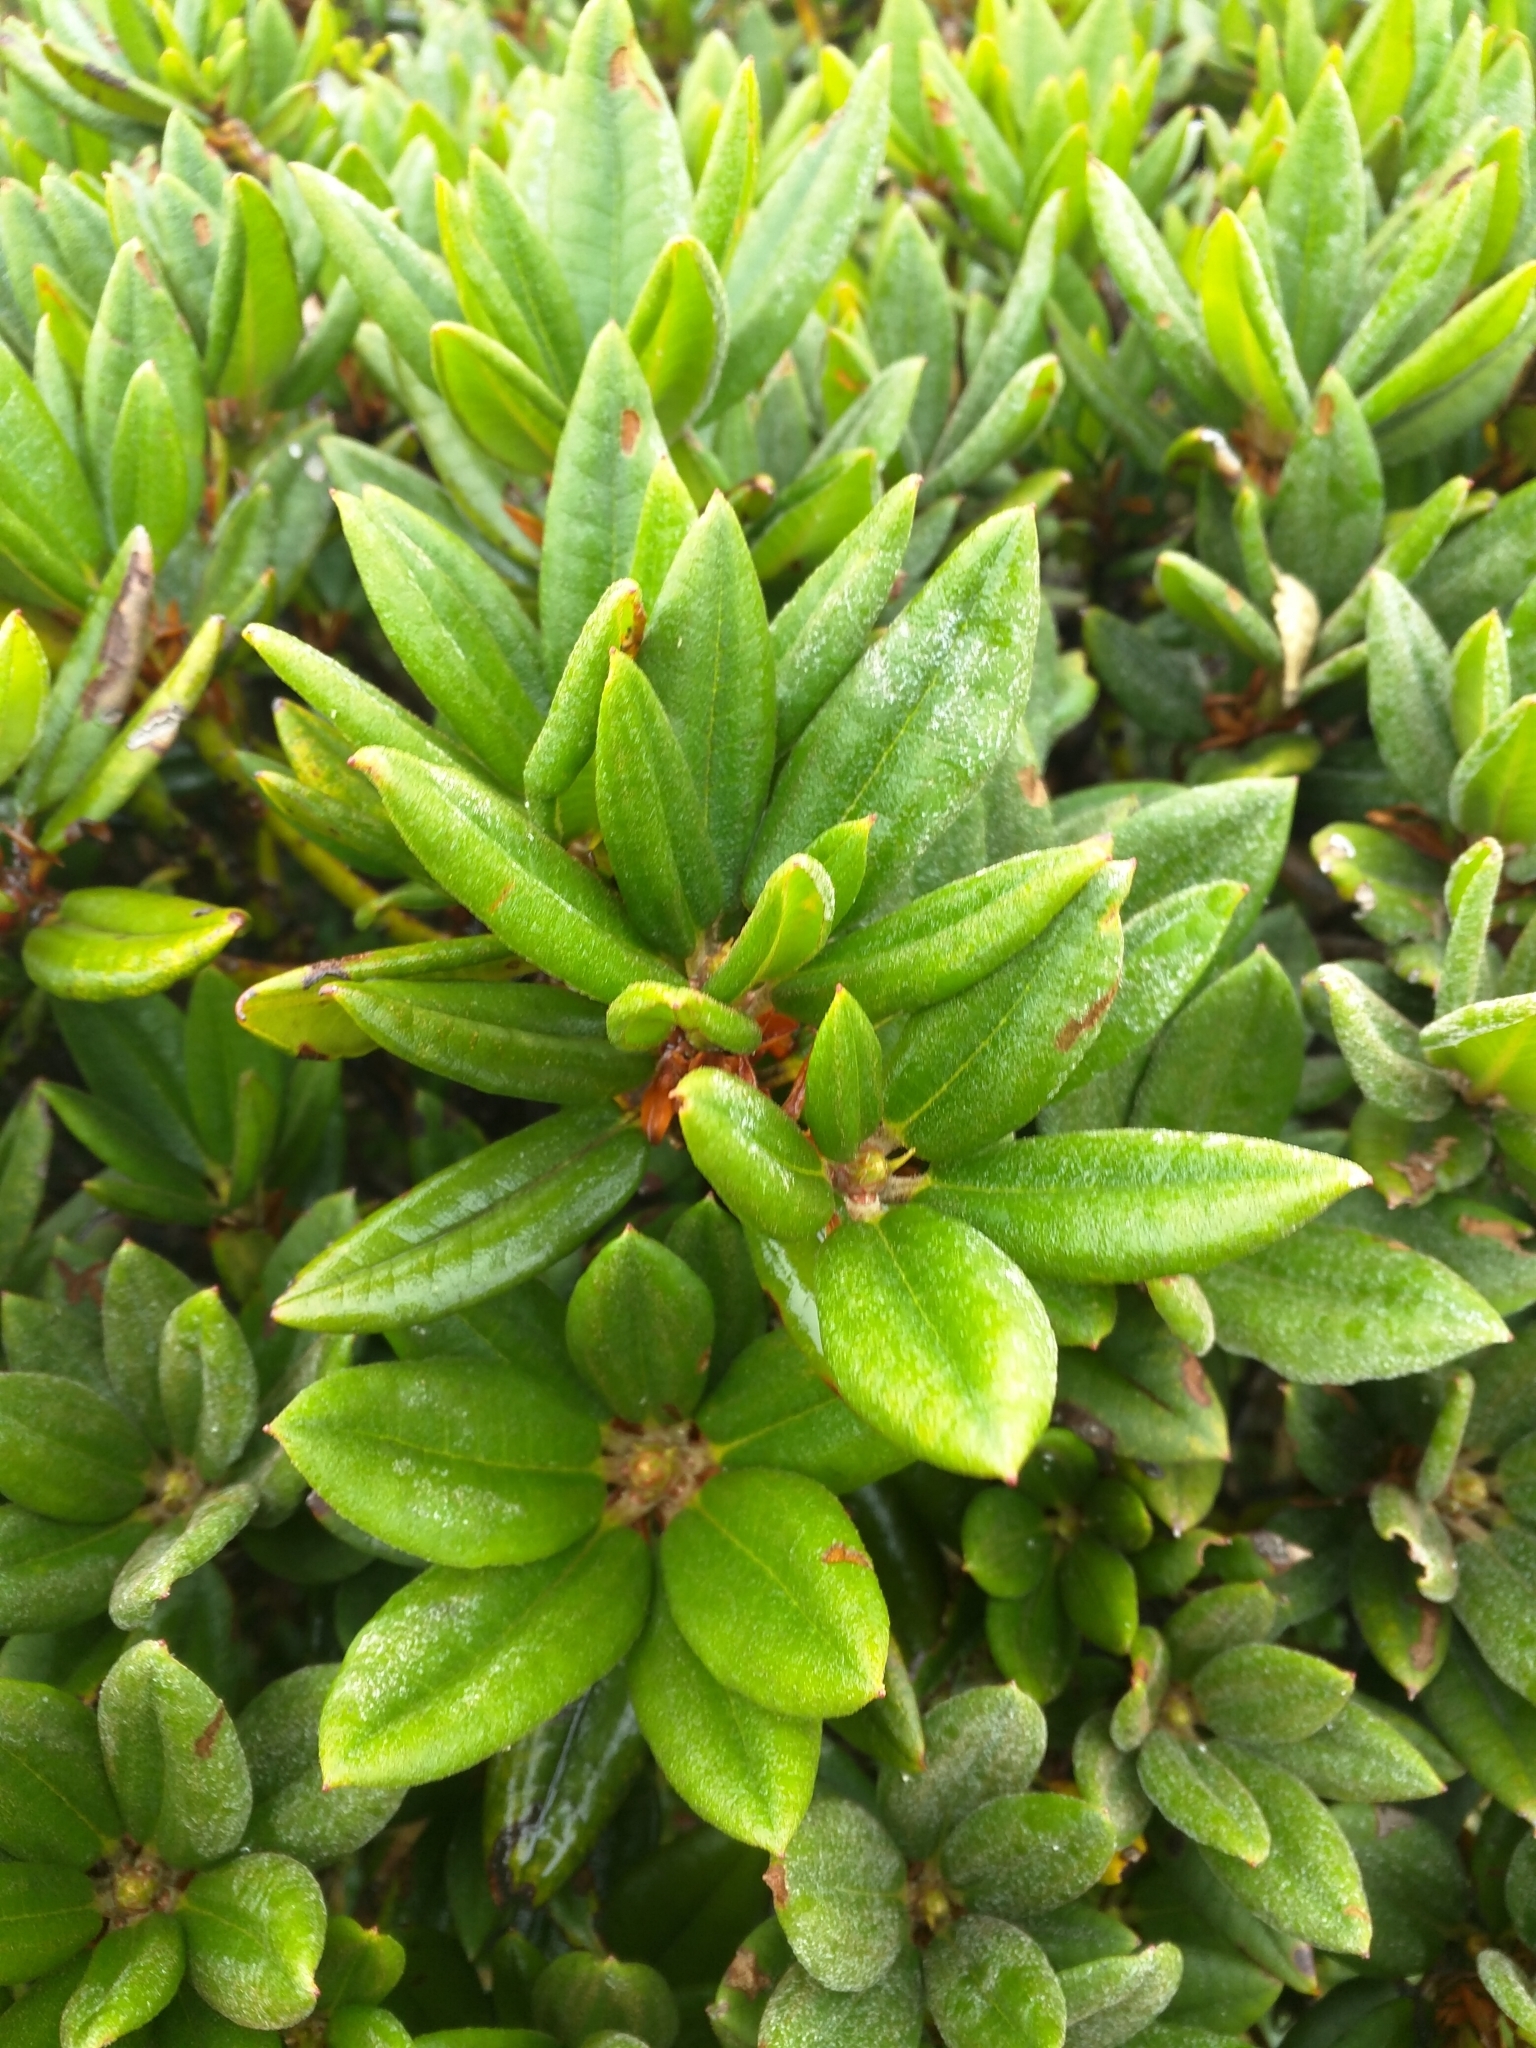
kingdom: Plantae
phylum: Tracheophyta
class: Magnoliopsida
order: Ericales
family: Ericaceae
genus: Rhododendron
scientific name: Rhododendron pseudochrysanthum
